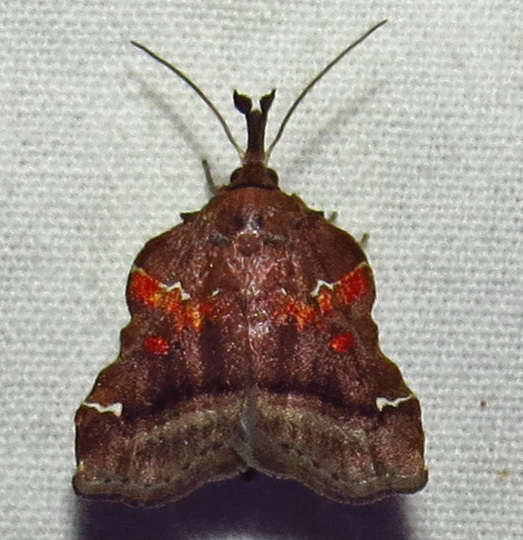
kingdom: Animalia
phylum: Arthropoda
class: Insecta
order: Lepidoptera
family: Pyralidae
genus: Clydonopteron
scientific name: Clydonopteron sacculana
